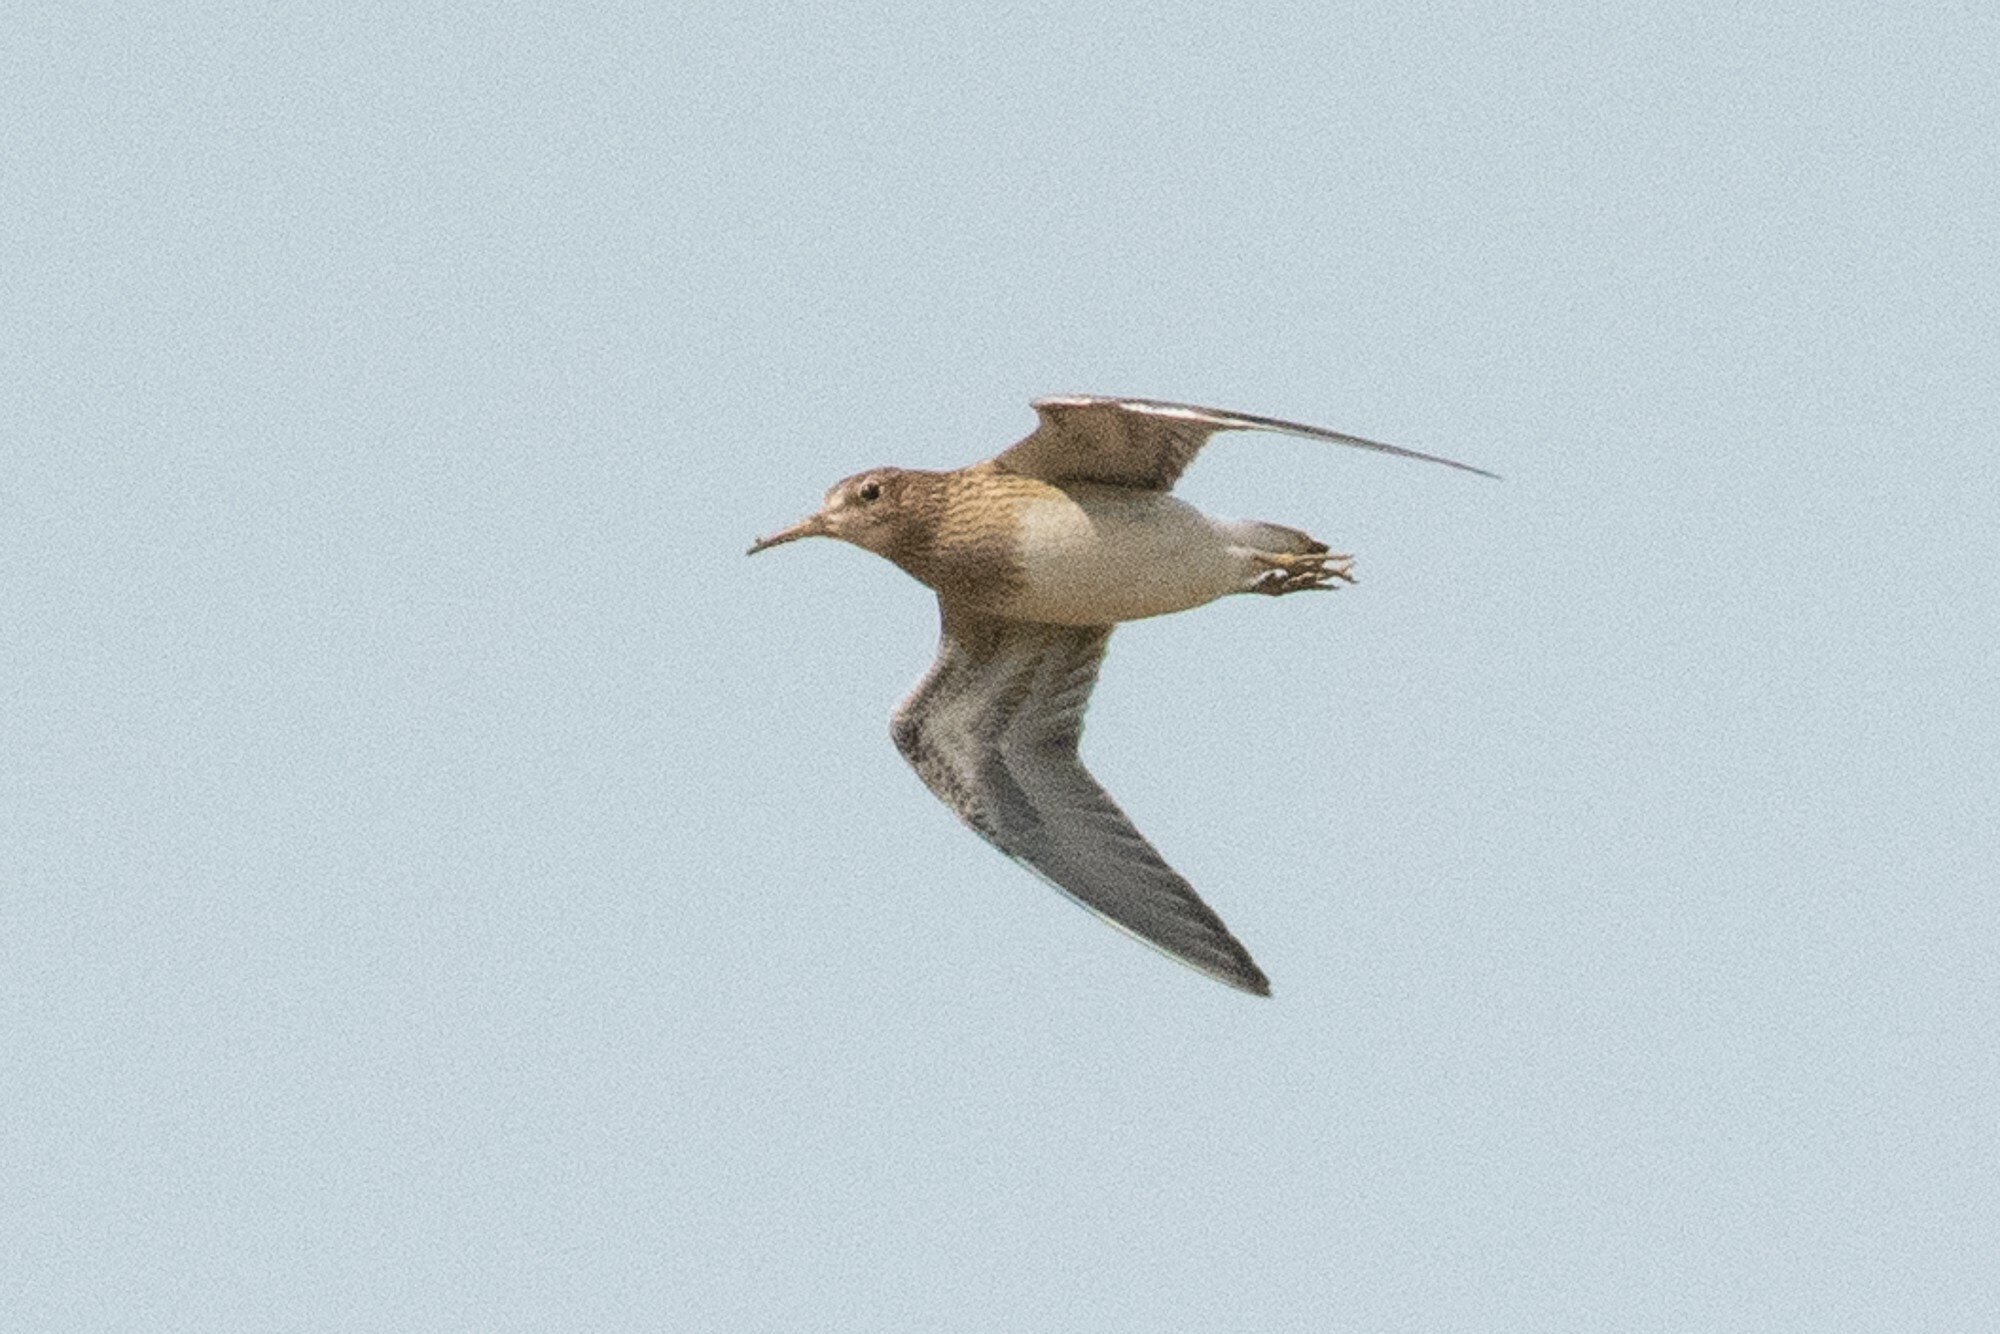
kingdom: Animalia
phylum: Chordata
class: Aves
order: Charadriiformes
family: Scolopacidae
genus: Calidris
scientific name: Calidris melanotos
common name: Pectoral sandpiper
